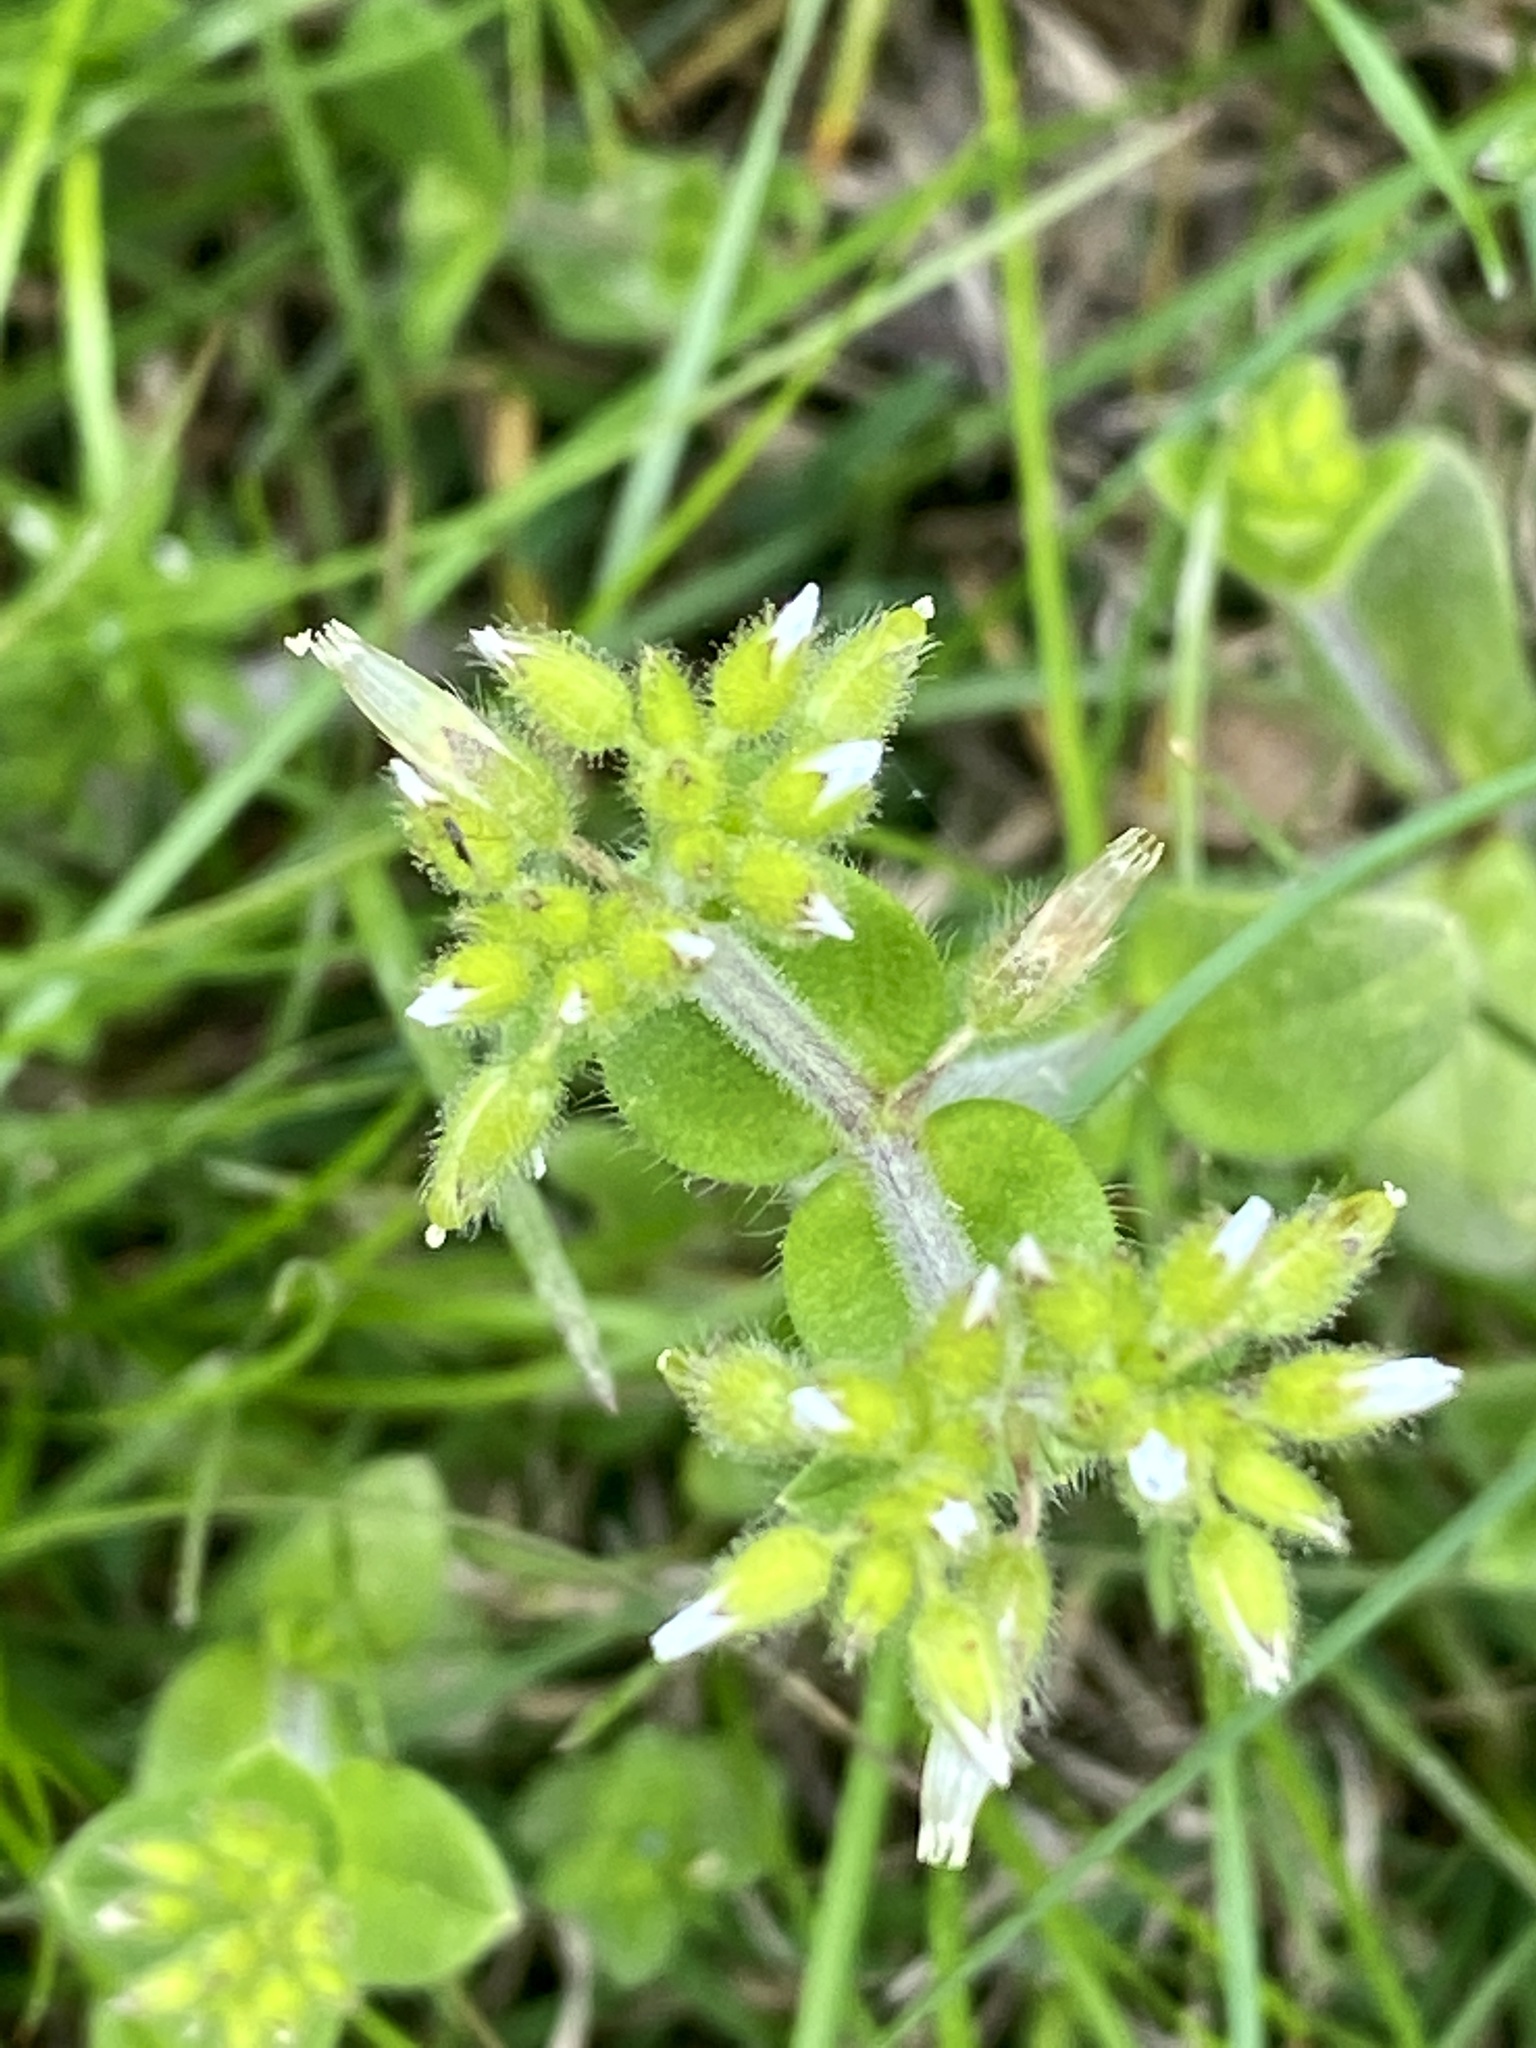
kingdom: Plantae
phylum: Tracheophyta
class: Magnoliopsida
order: Caryophyllales
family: Caryophyllaceae
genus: Cerastium
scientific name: Cerastium glomeratum
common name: Sticky chickweed
